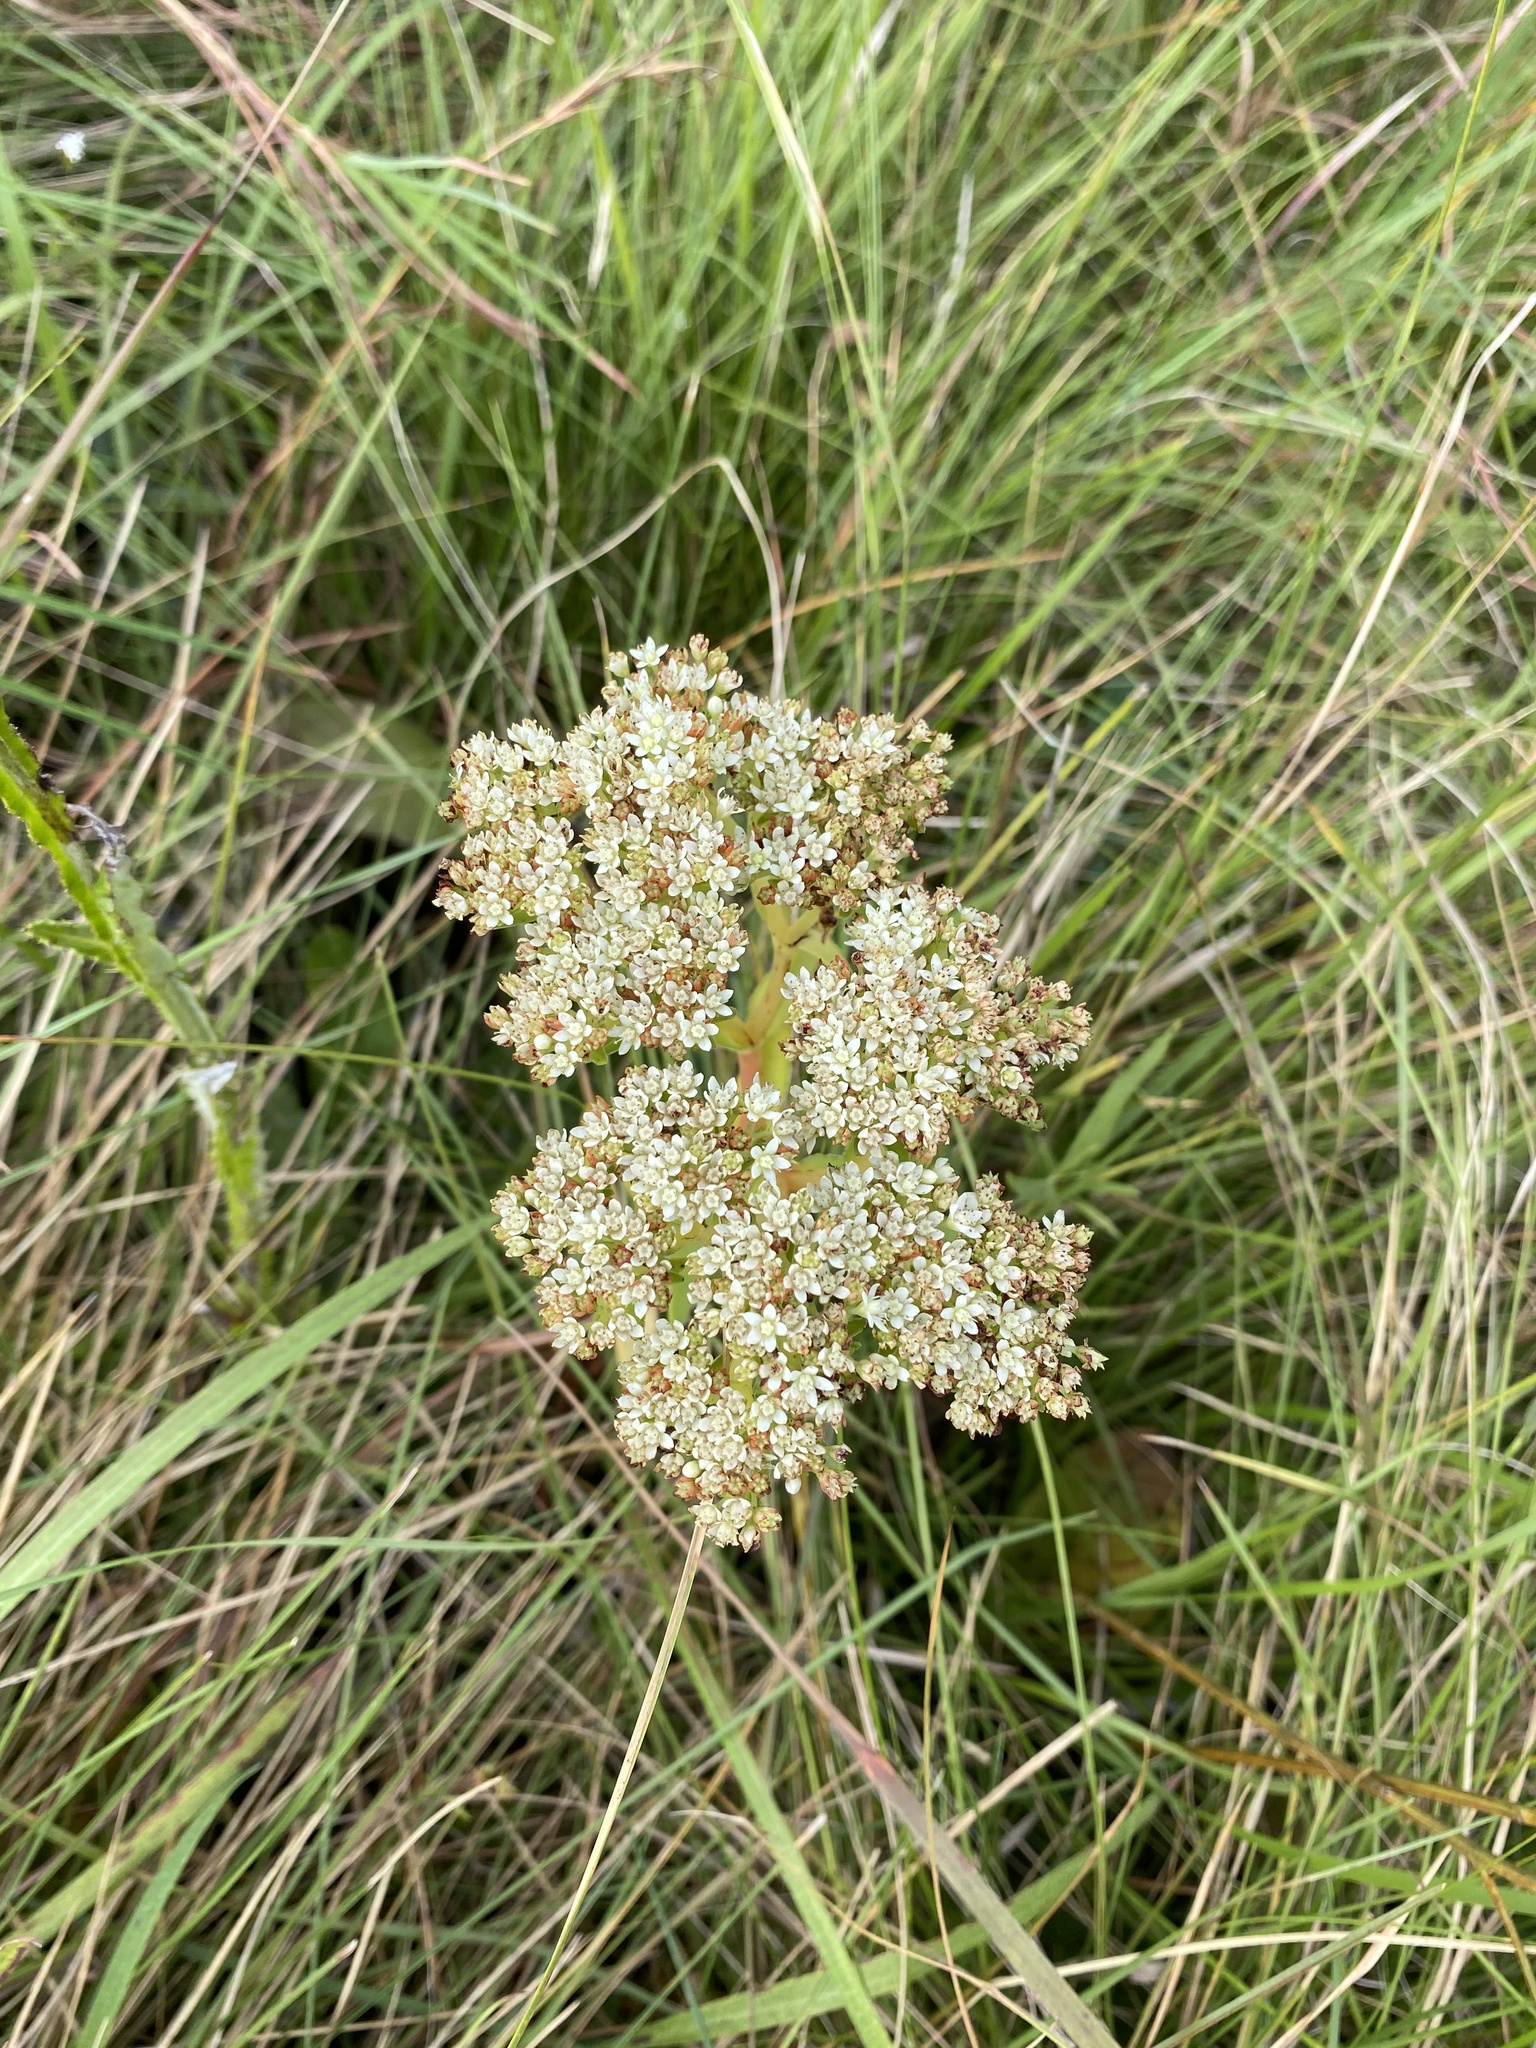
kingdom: Plantae
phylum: Tracheophyta
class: Magnoliopsida
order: Saxifragales
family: Crassulaceae
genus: Crassula
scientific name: Crassula vaginata
